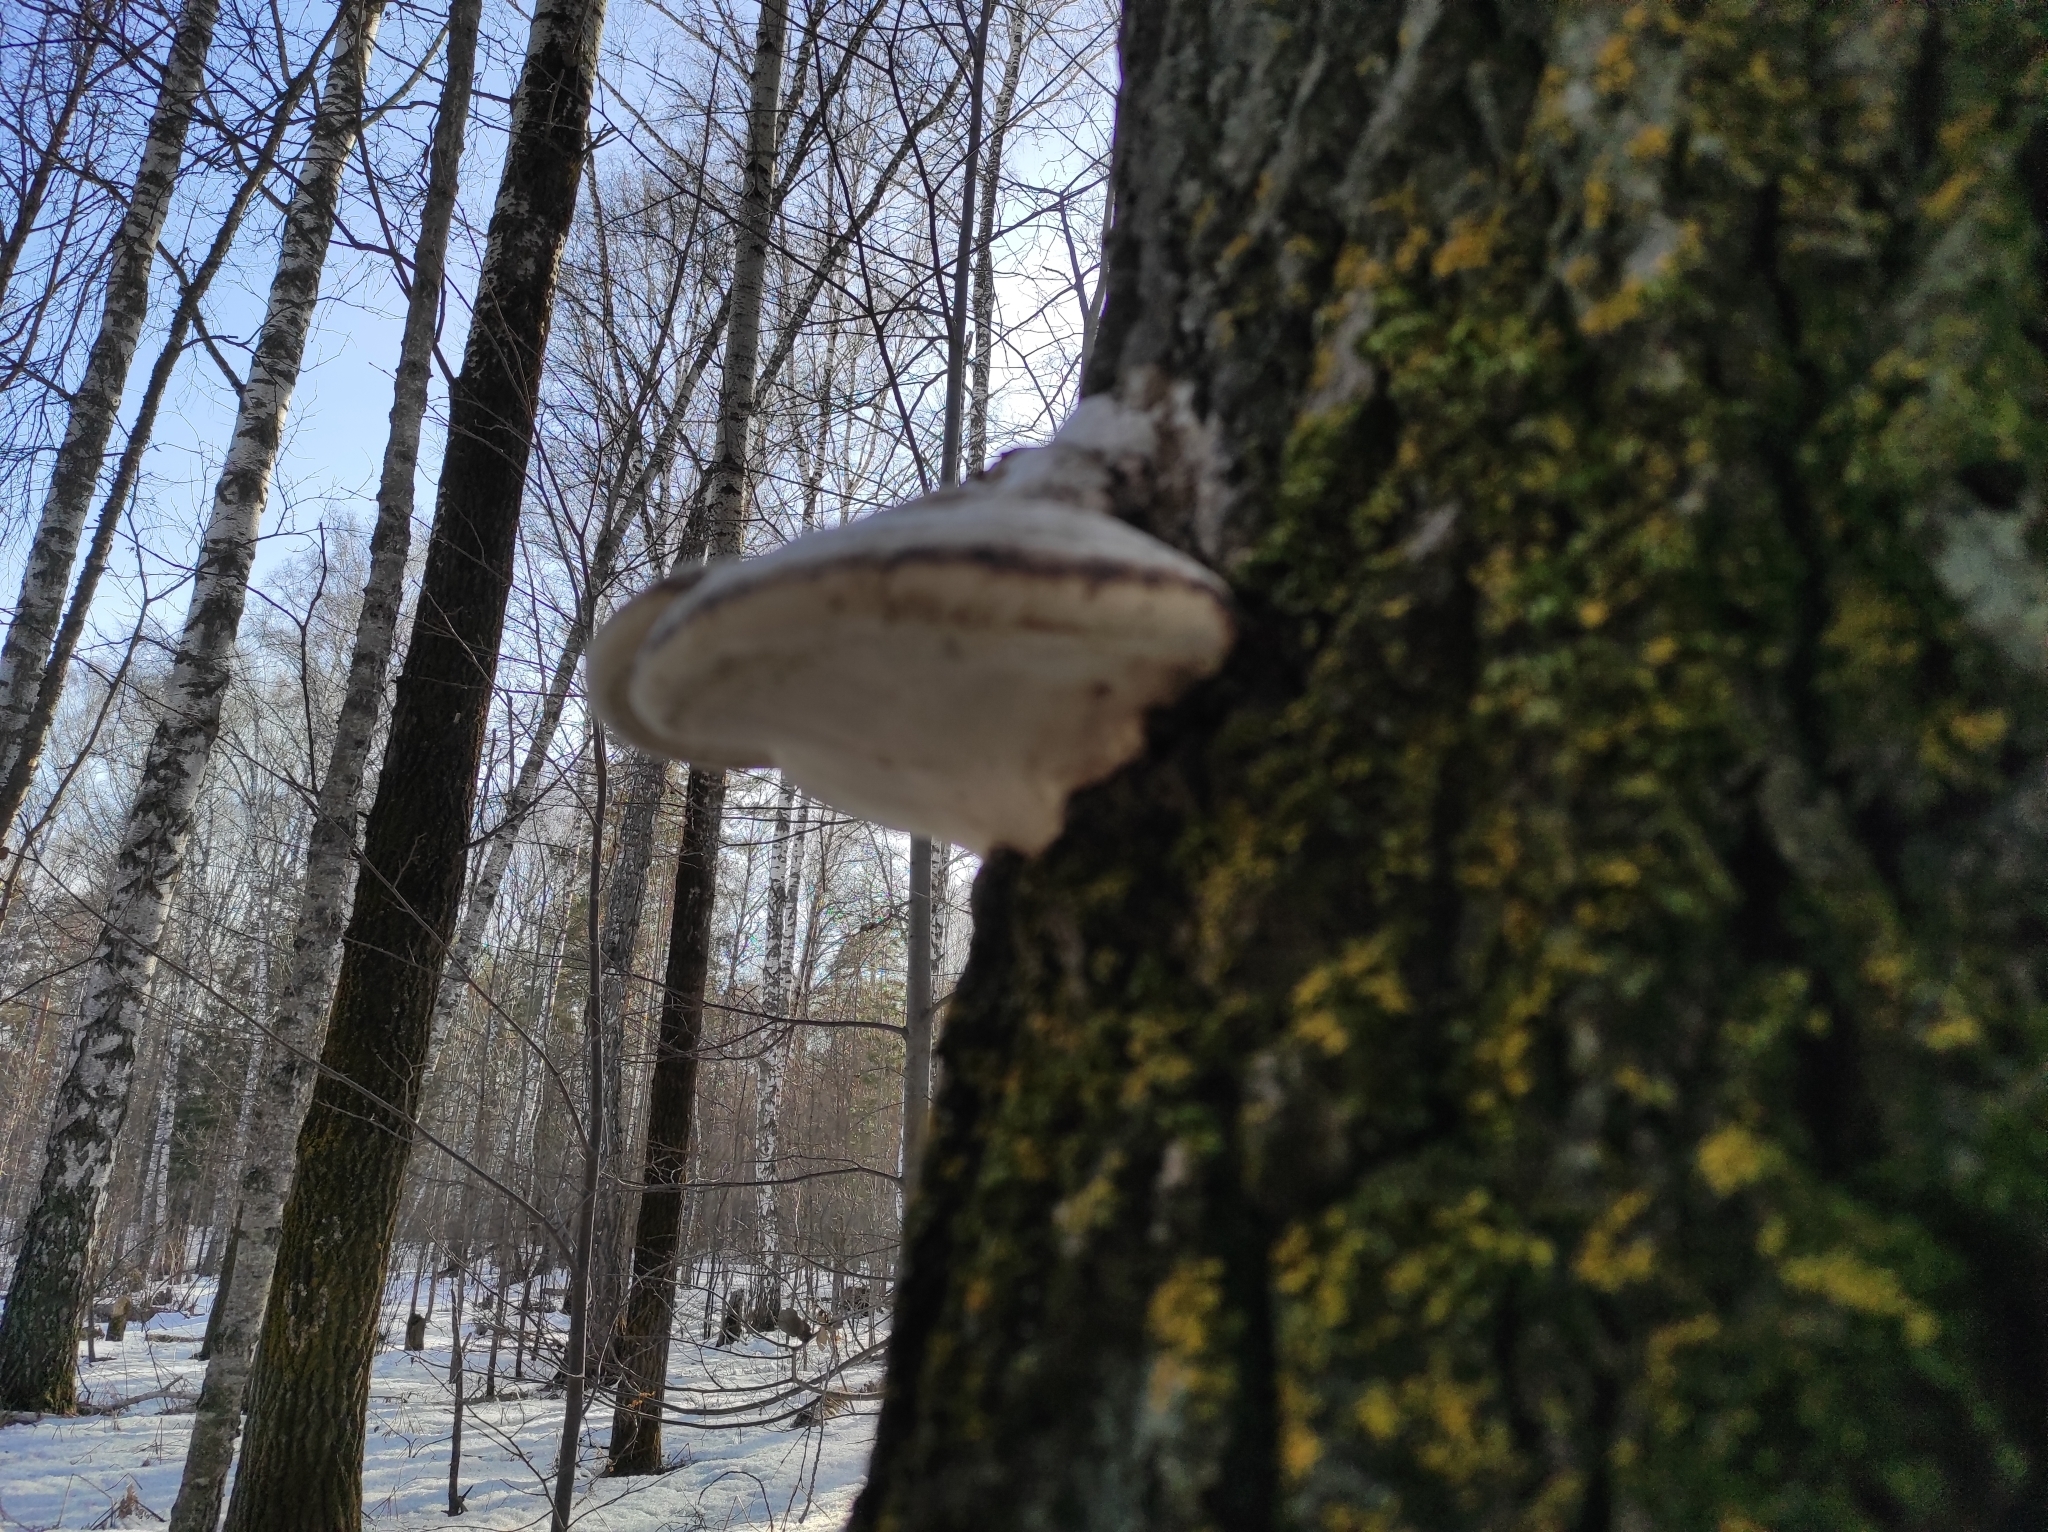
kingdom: Fungi
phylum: Basidiomycota
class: Agaricomycetes
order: Polyporales
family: Polyporaceae
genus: Fomes
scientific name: Fomes fomentarius
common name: Hoof fungus
